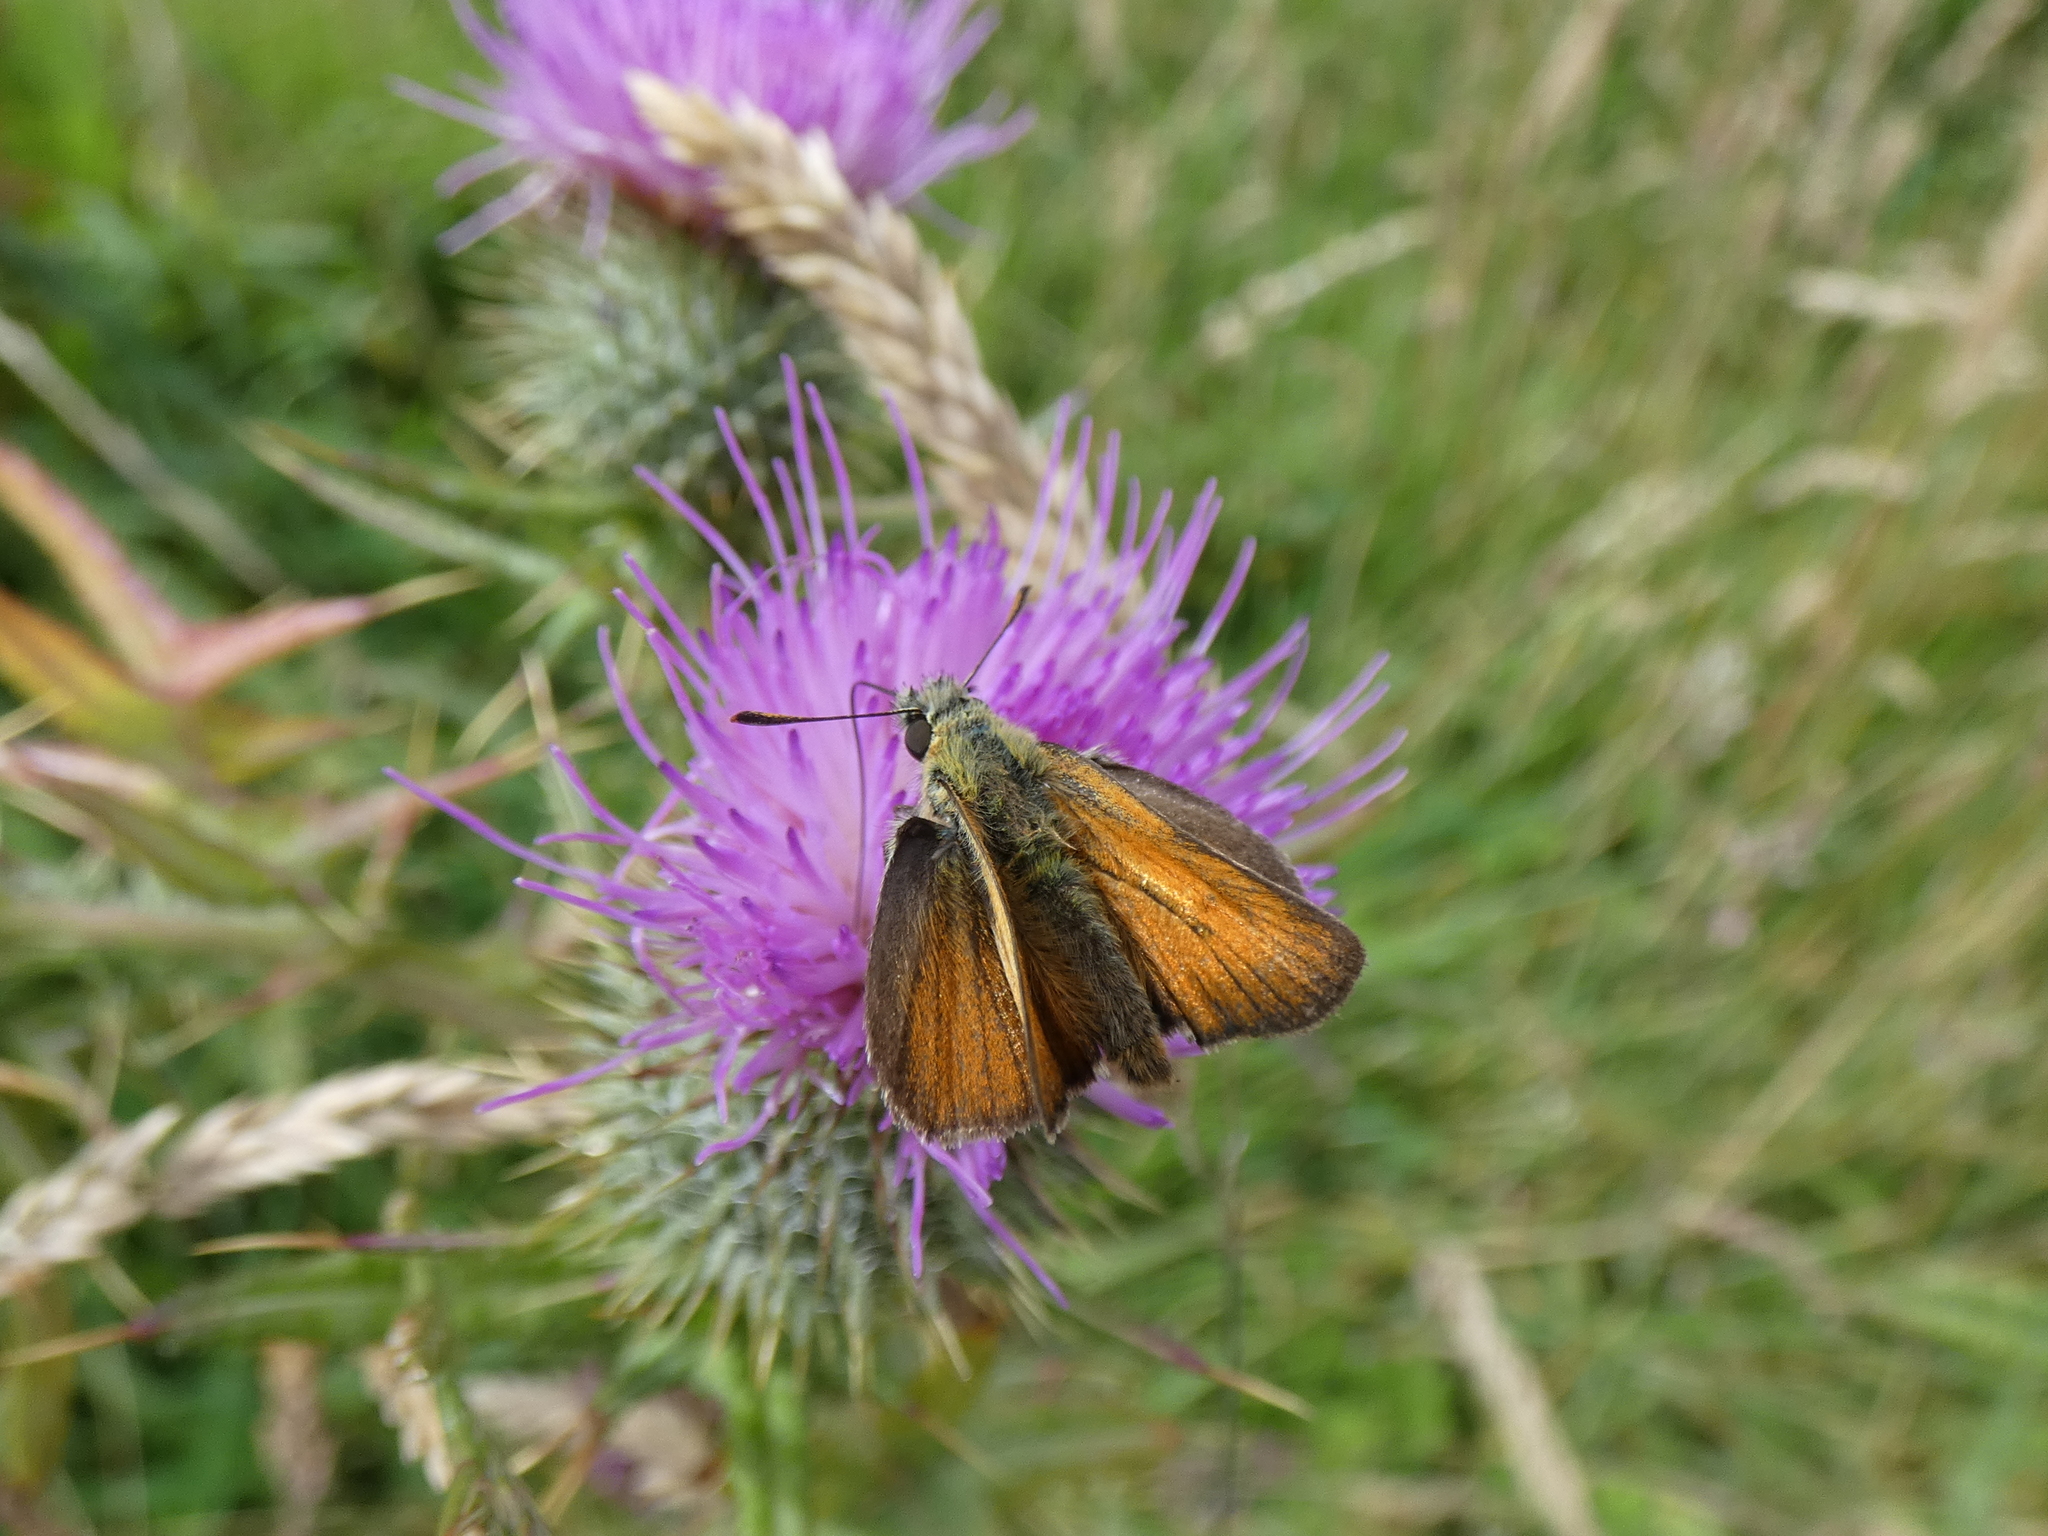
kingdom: Animalia
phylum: Arthropoda
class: Insecta
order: Lepidoptera
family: Hesperiidae
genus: Thymelicus
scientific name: Thymelicus sylvestris
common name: Small skipper
